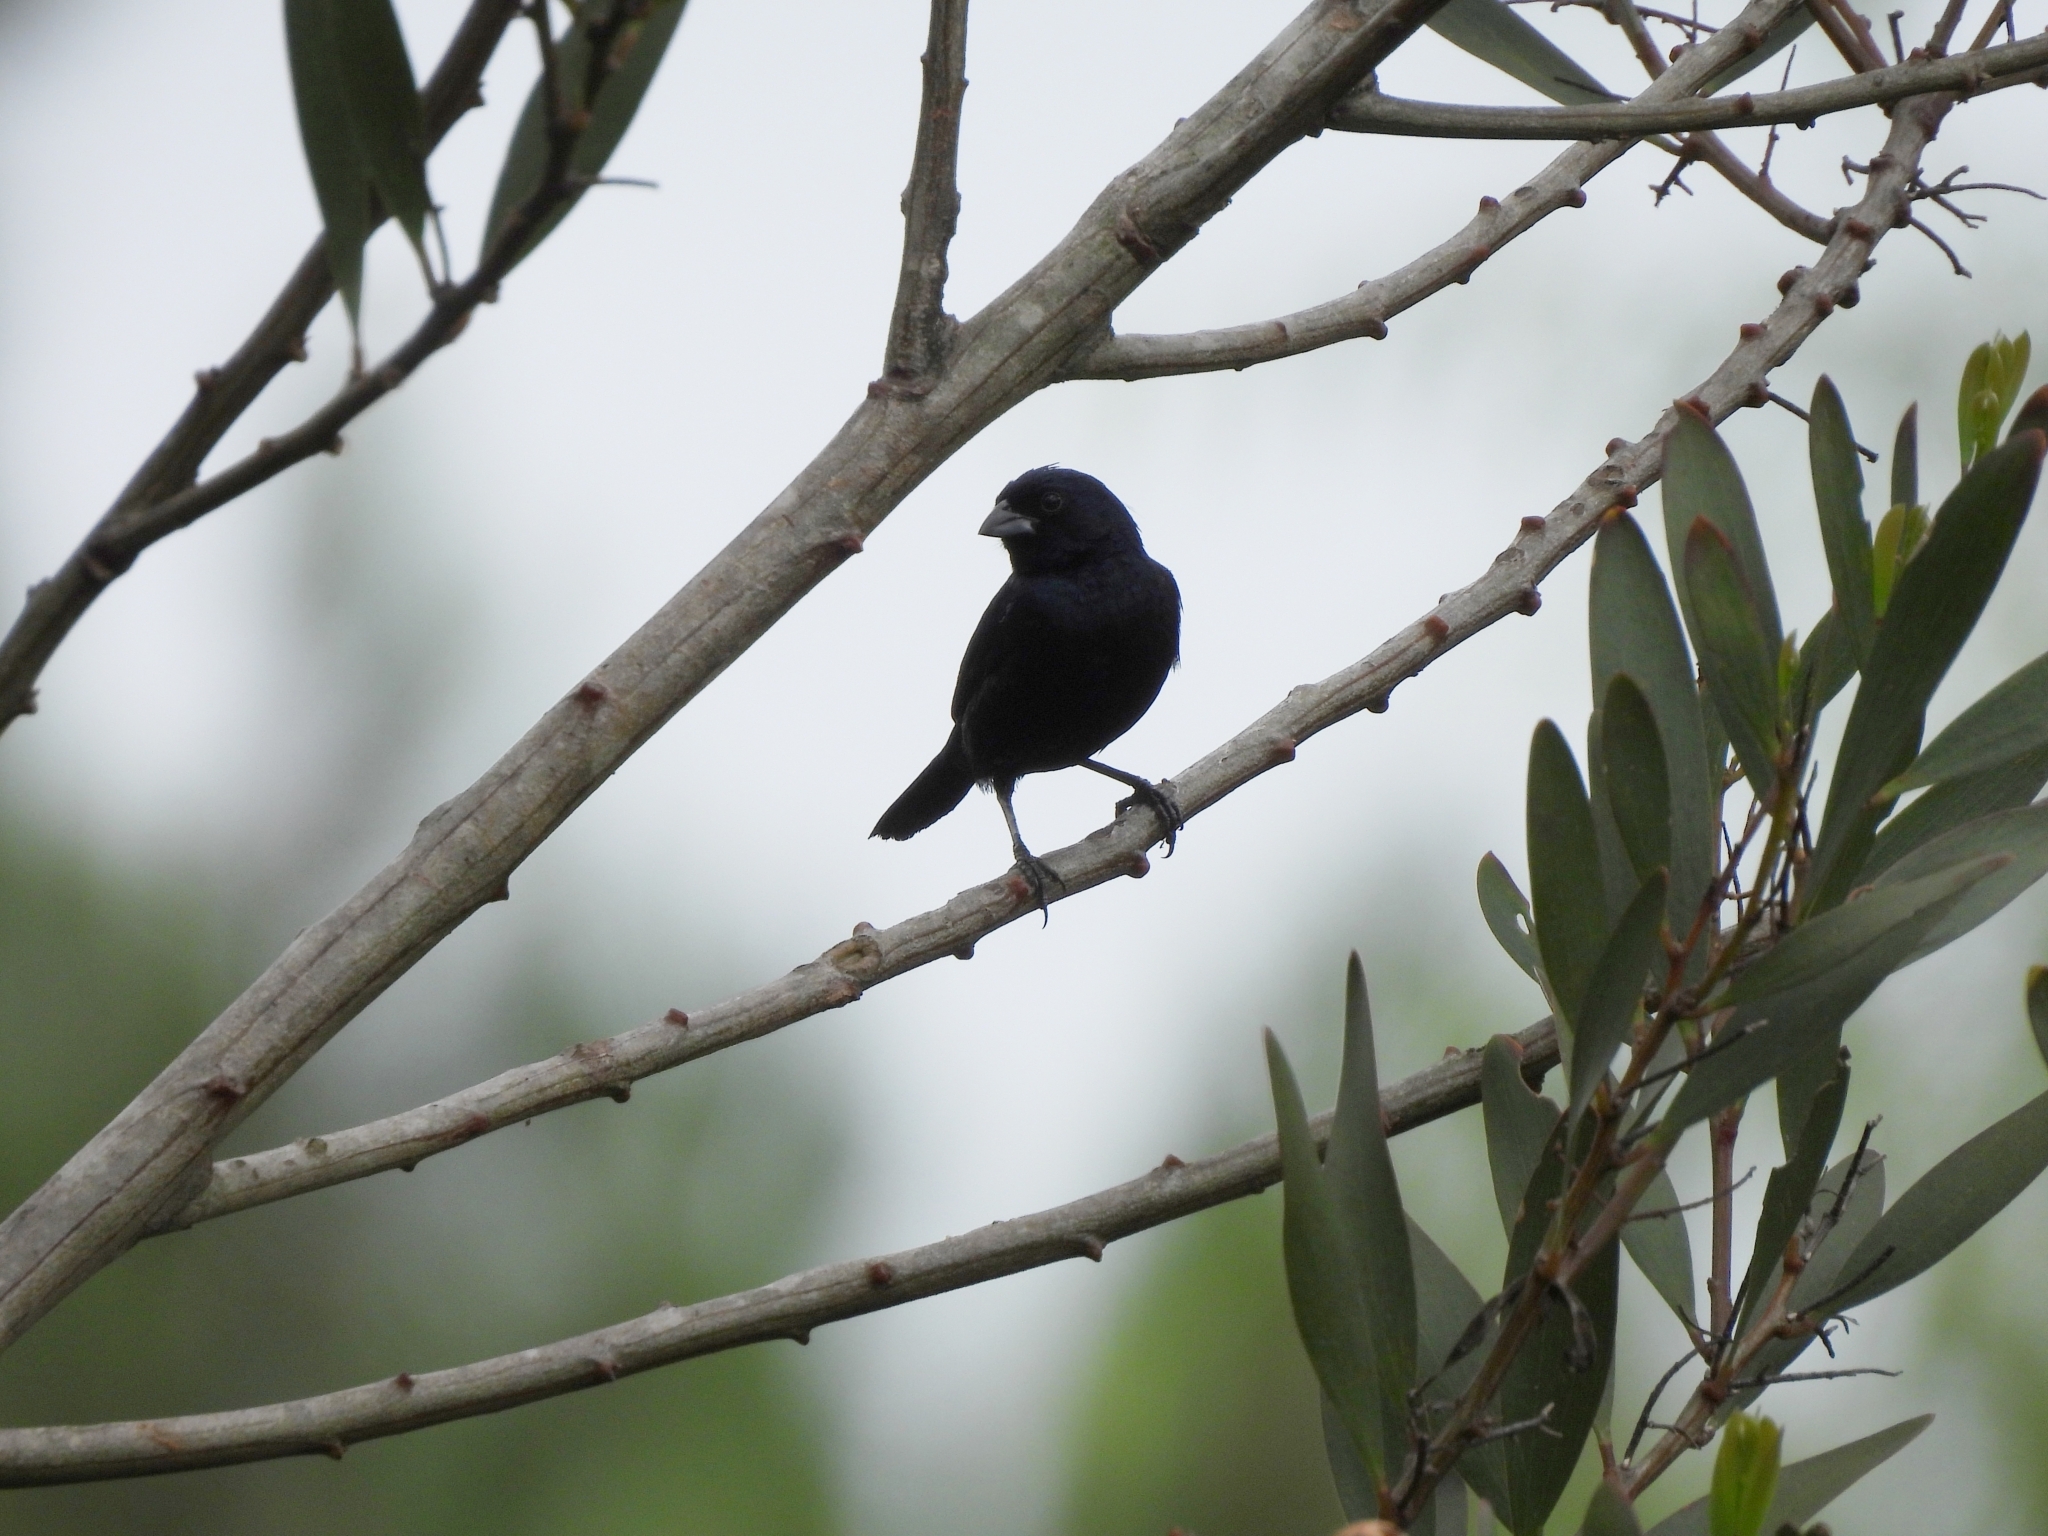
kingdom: Animalia
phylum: Chordata
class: Aves
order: Passeriformes
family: Thraupidae
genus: Volatinia
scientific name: Volatinia jacarina
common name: Blue-black grassquit
